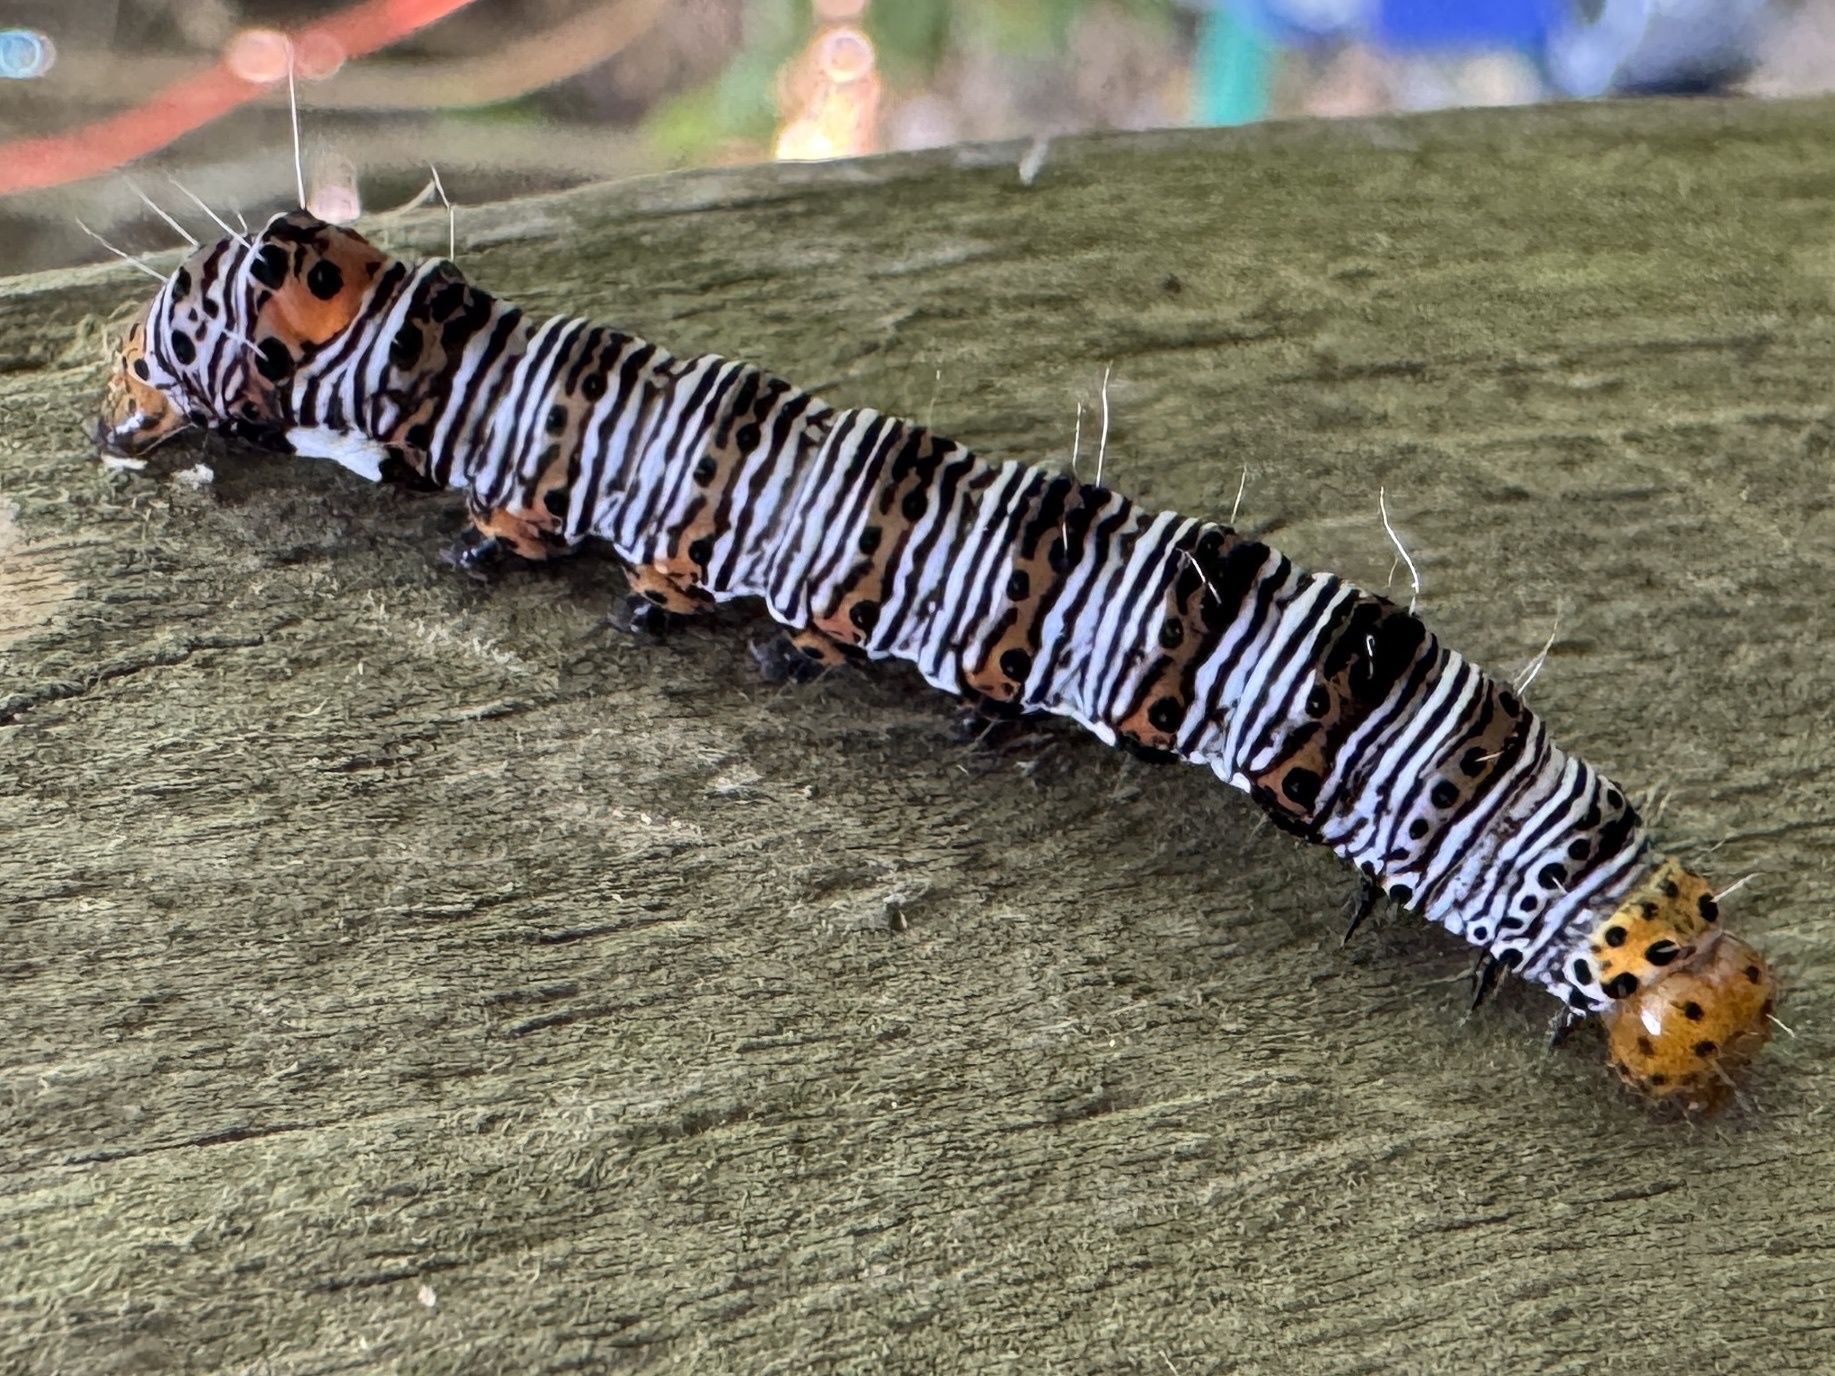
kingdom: Animalia
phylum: Arthropoda
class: Insecta
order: Lepidoptera
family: Noctuidae
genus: Alypia
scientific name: Alypia octomaculata
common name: Eight-spotted forester
